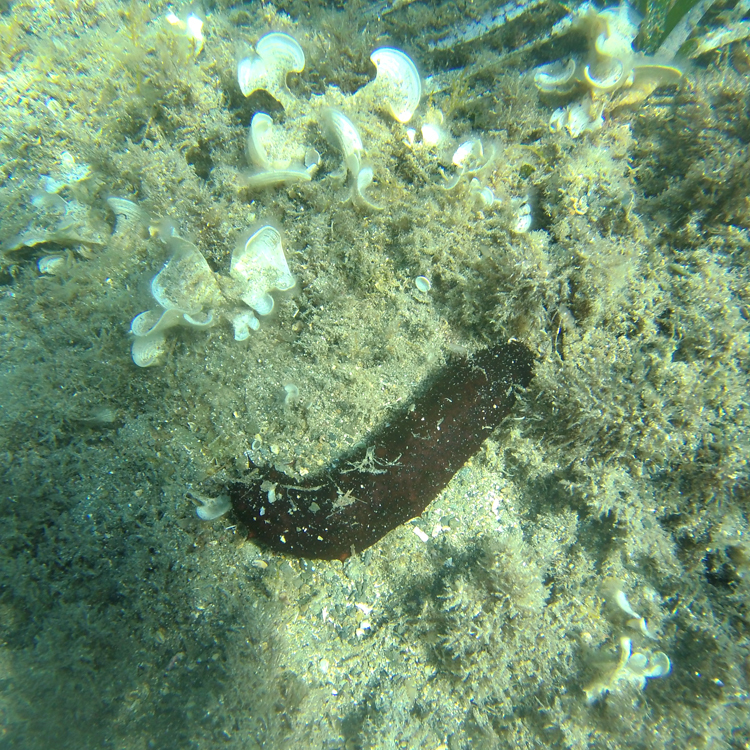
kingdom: Animalia
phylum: Echinodermata
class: Holothuroidea
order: Holothuriida
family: Holothuriidae
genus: Holothuria
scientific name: Holothuria poli
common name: White spot cucumber
